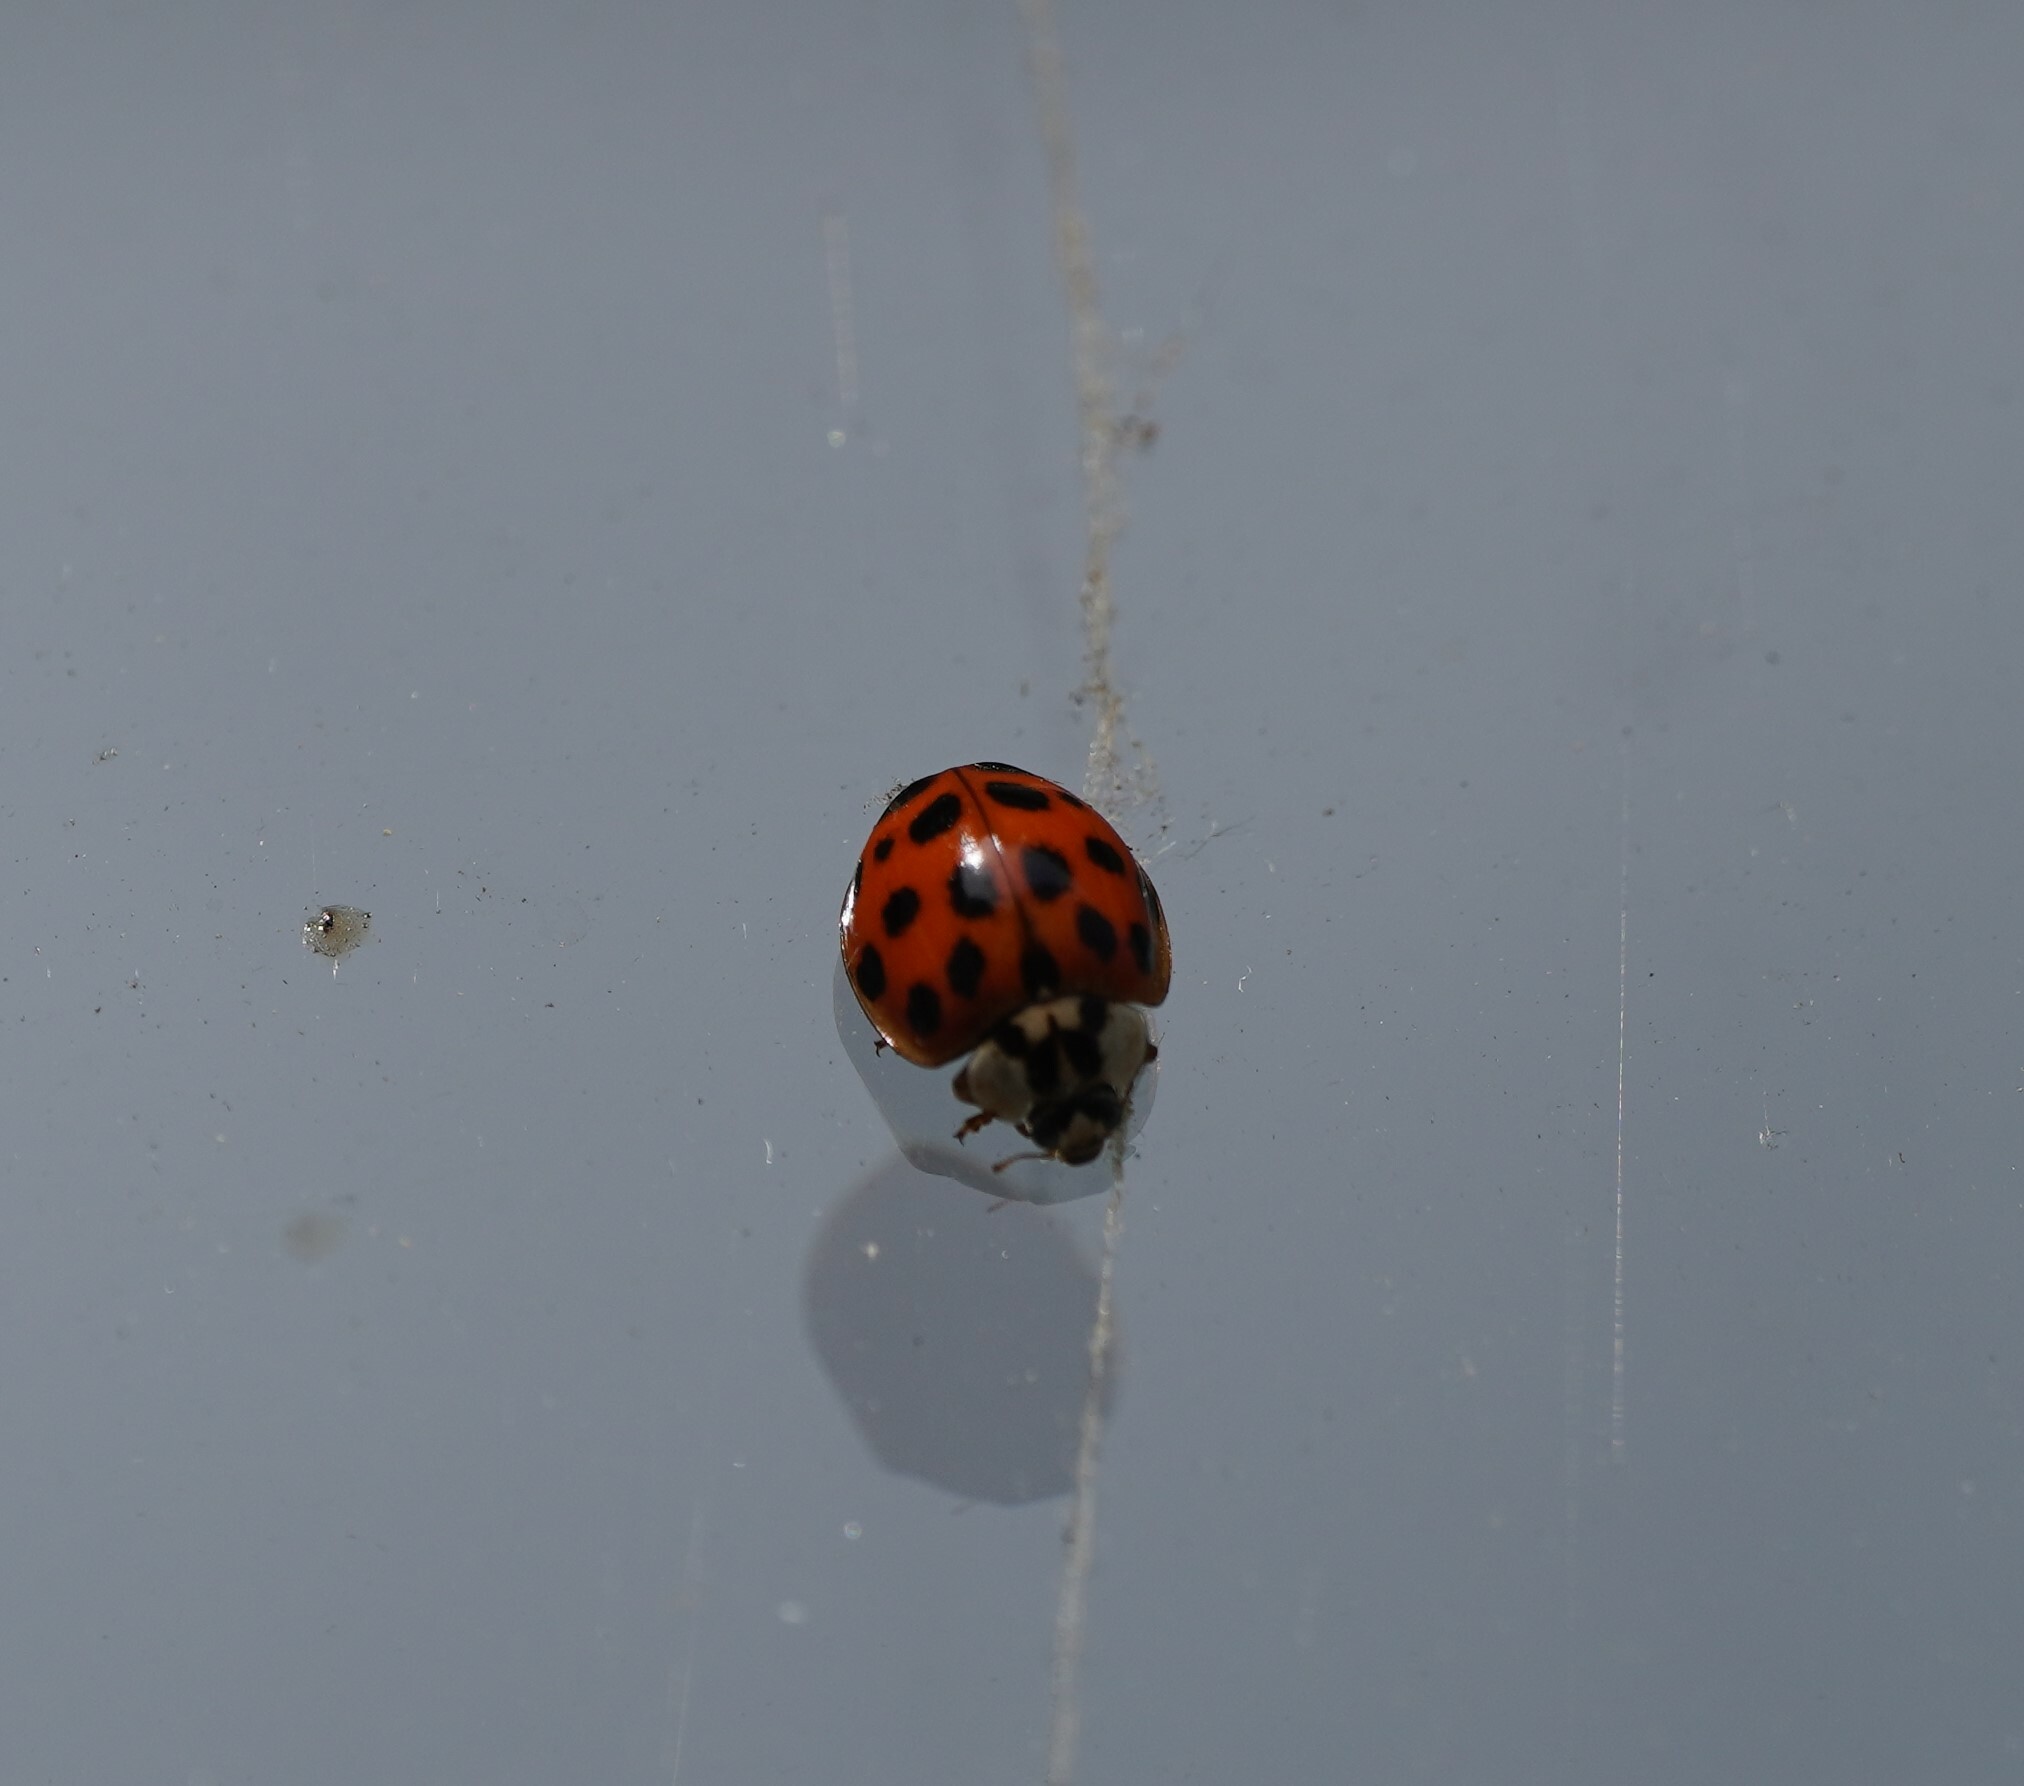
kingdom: Animalia
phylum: Arthropoda
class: Insecta
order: Coleoptera
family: Coccinellidae
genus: Harmonia
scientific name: Harmonia axyridis
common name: Harlequin ladybird
